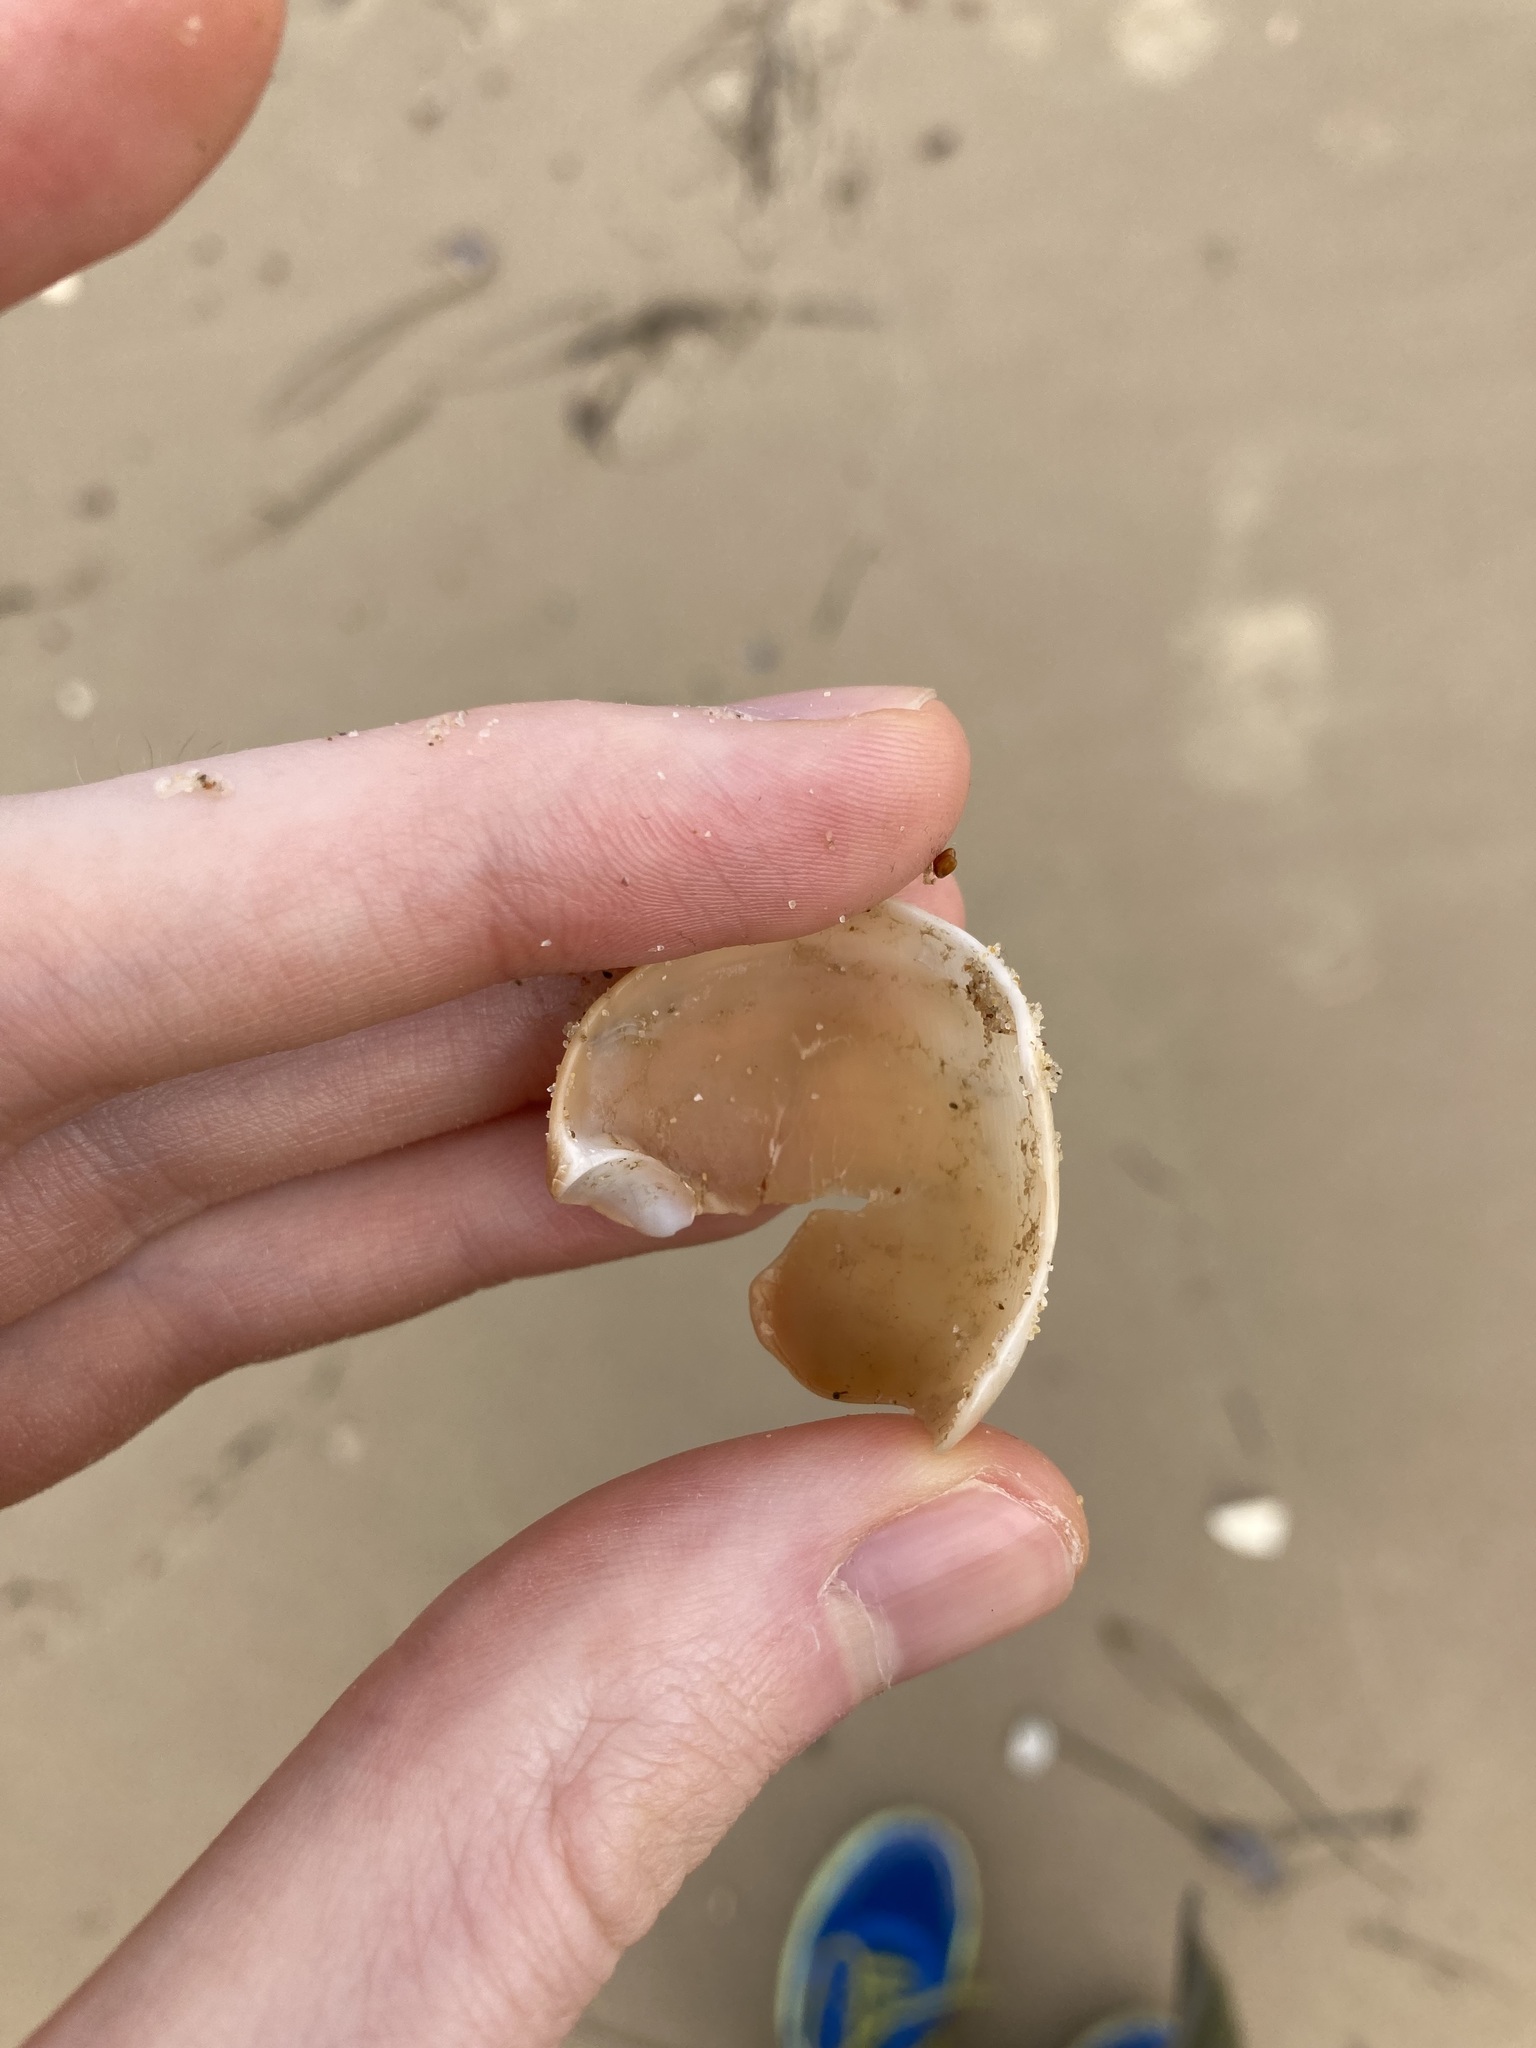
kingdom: Animalia
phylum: Mollusca
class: Gastropoda
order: Littorinimorpha
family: Naticidae
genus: Neverita
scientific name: Neverita didyma
